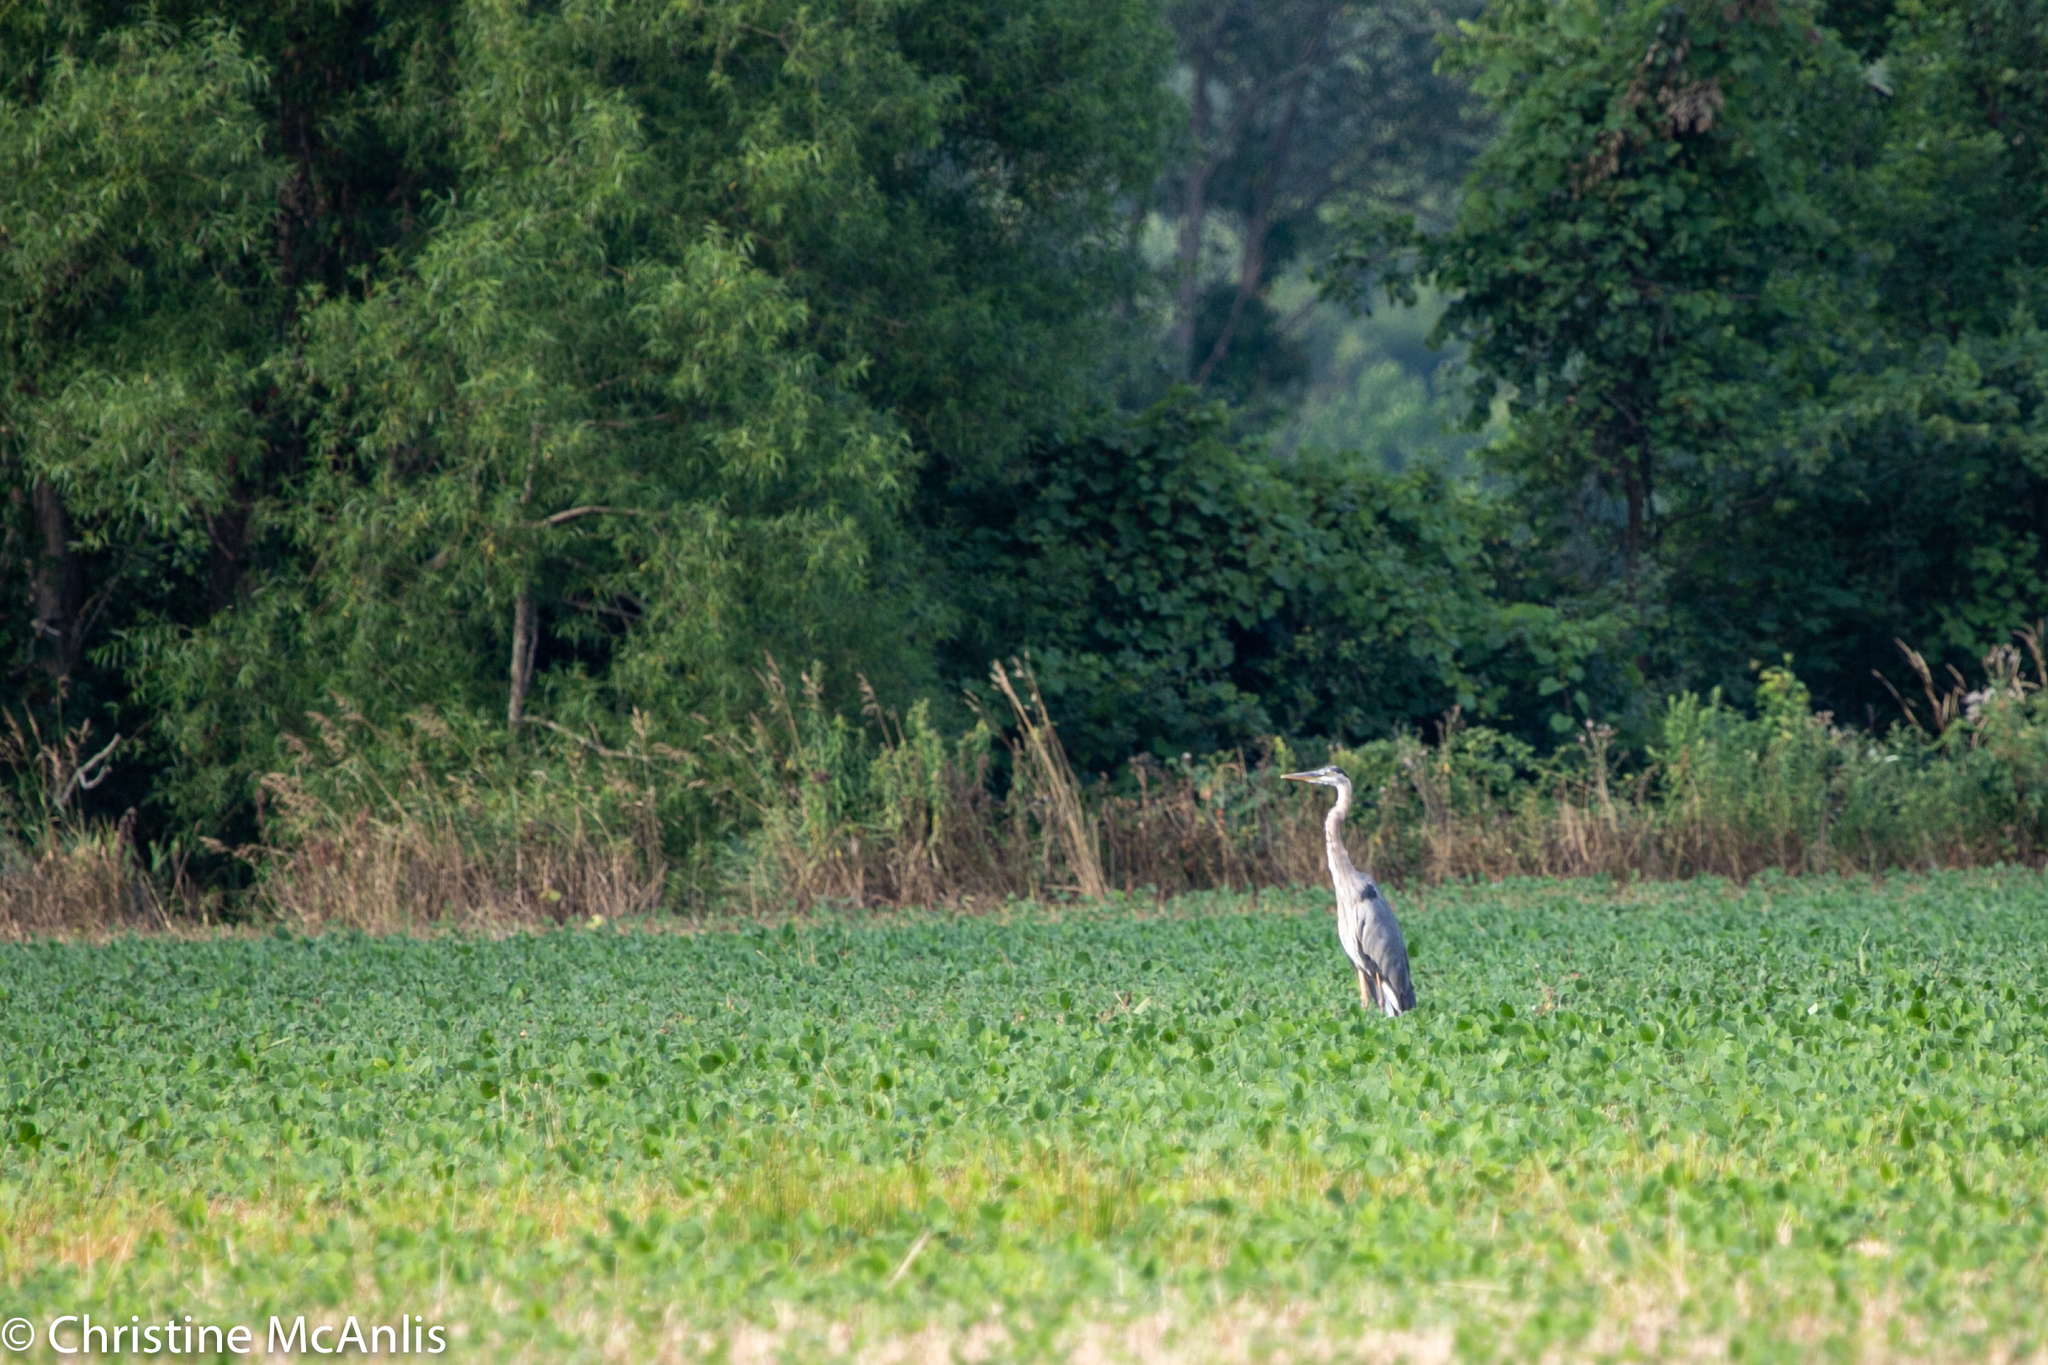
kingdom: Animalia
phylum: Chordata
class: Aves
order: Pelecaniformes
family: Ardeidae
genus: Ardea
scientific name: Ardea herodias
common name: Great blue heron
